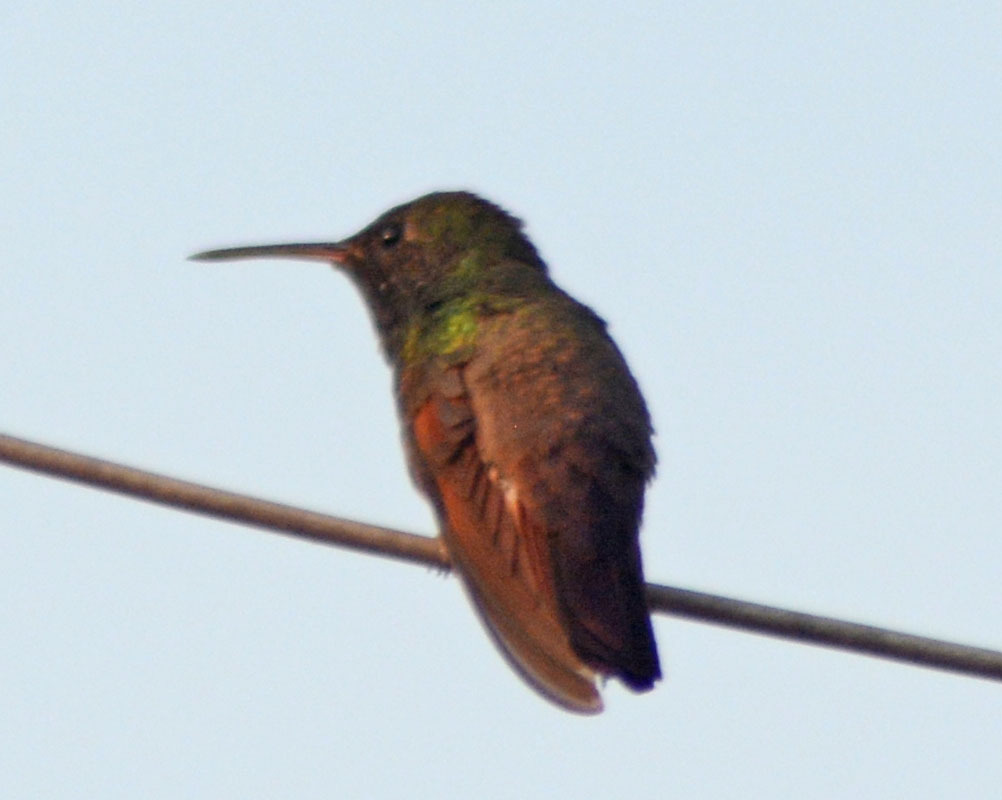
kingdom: Animalia
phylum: Chordata
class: Aves
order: Apodiformes
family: Trochilidae
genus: Saucerottia
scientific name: Saucerottia beryllina
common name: Berylline hummingbird
